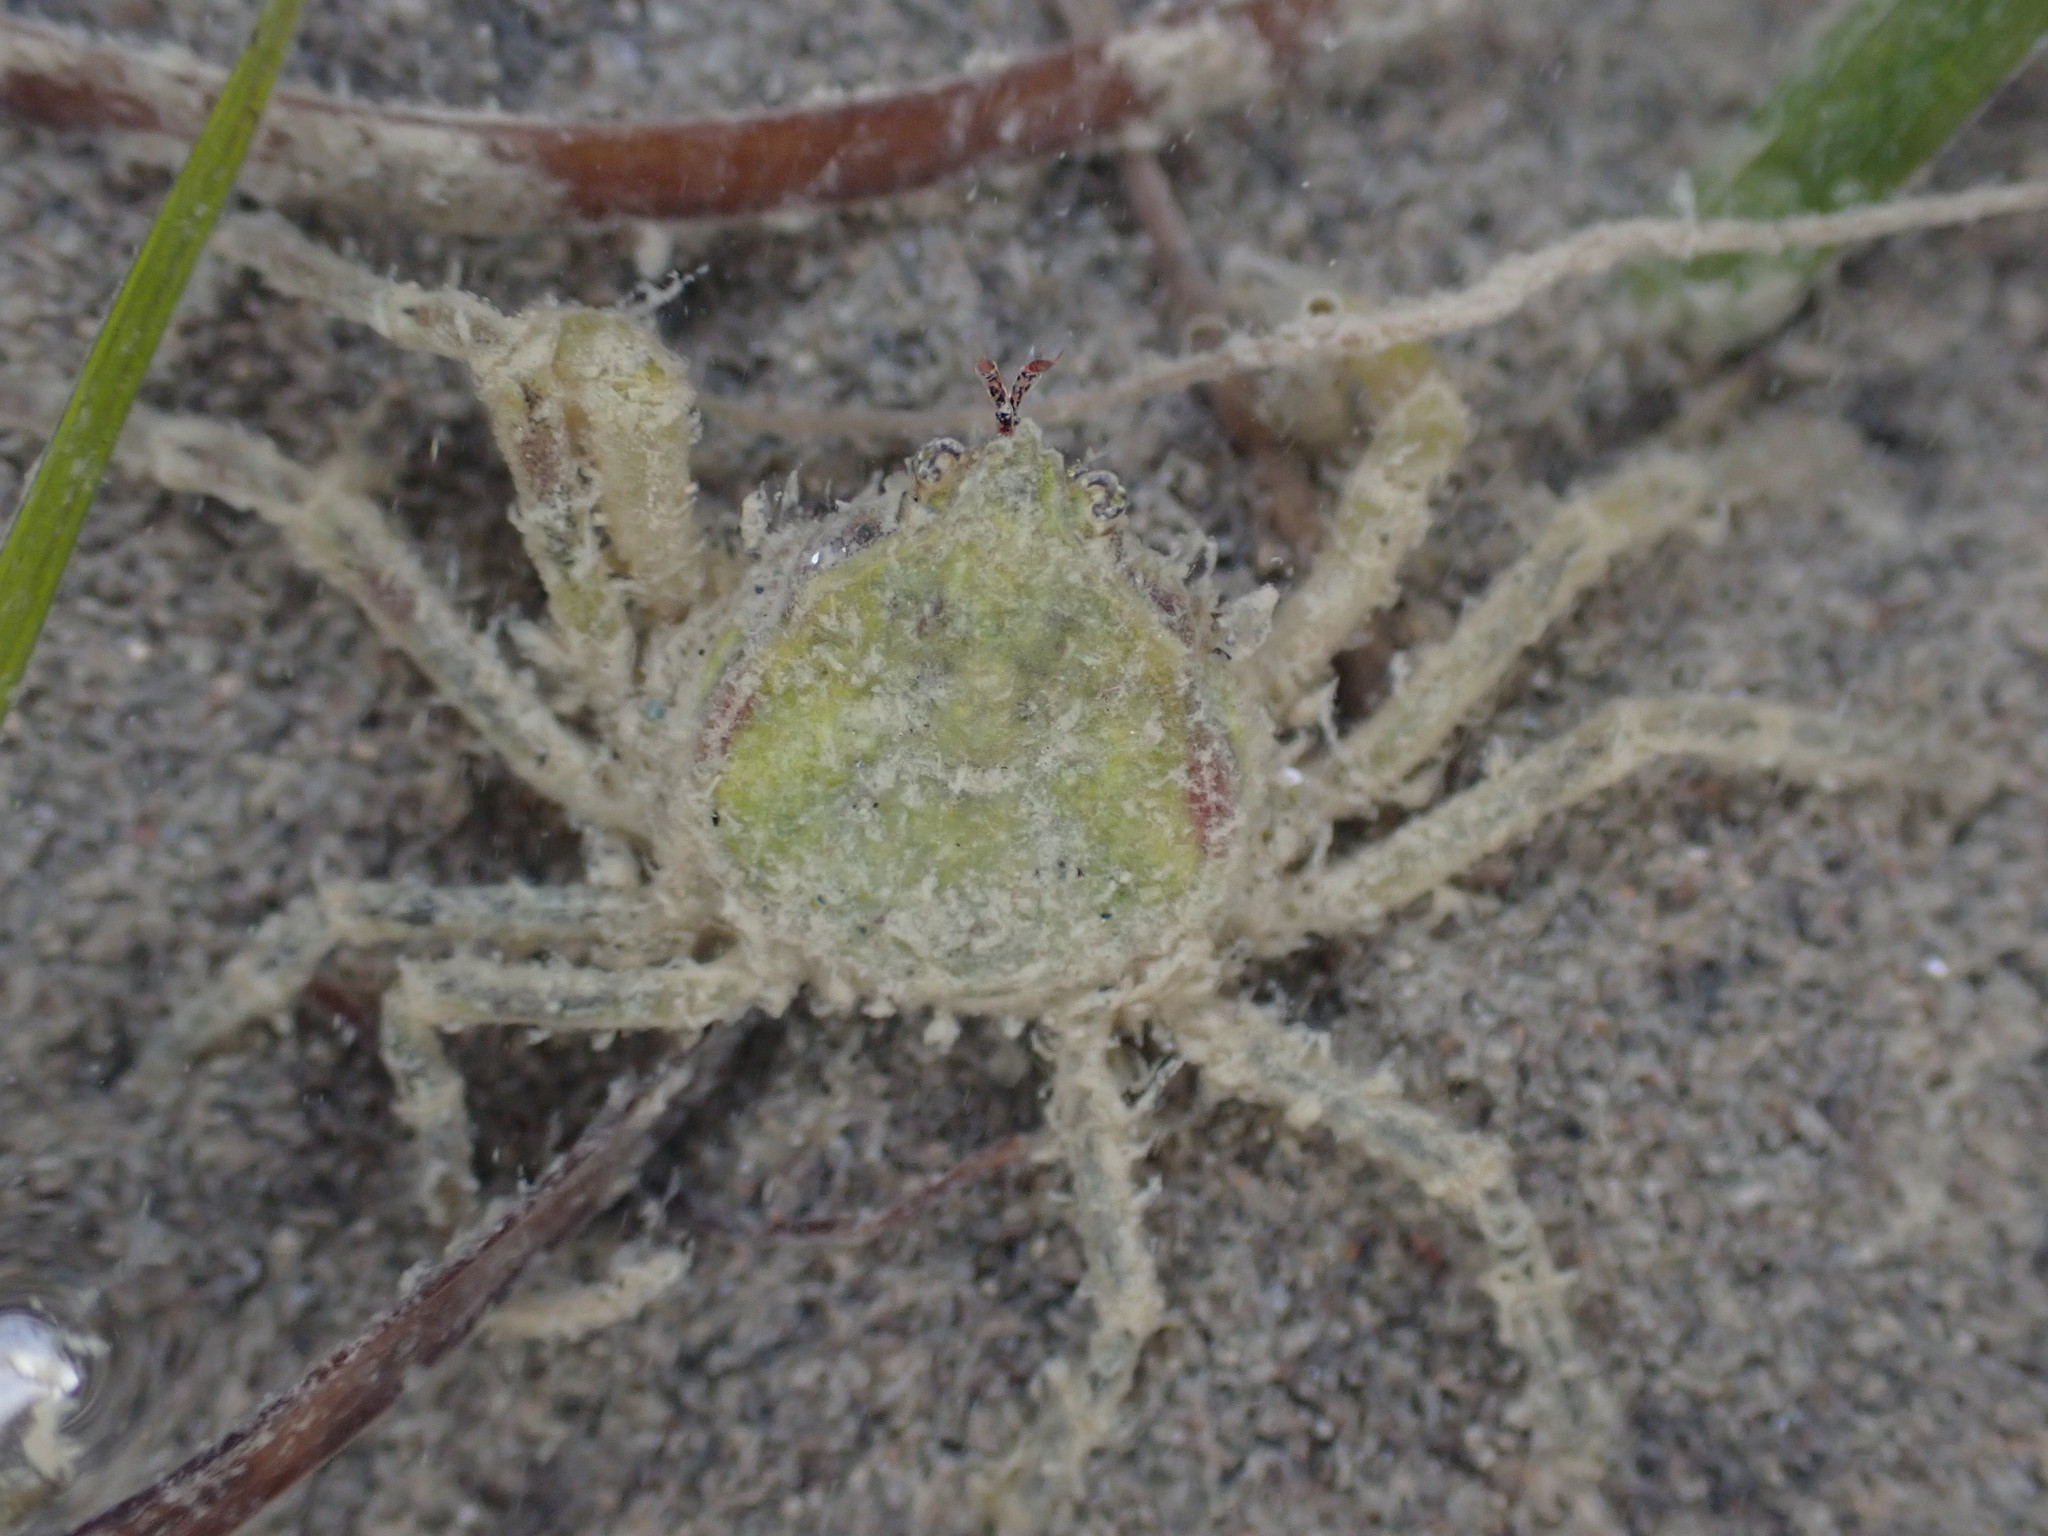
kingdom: Animalia
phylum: Arthropoda
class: Malacostraca
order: Decapoda
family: Hymenosomatidae
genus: Halicarcinus
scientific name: Halicarcinus whitei
